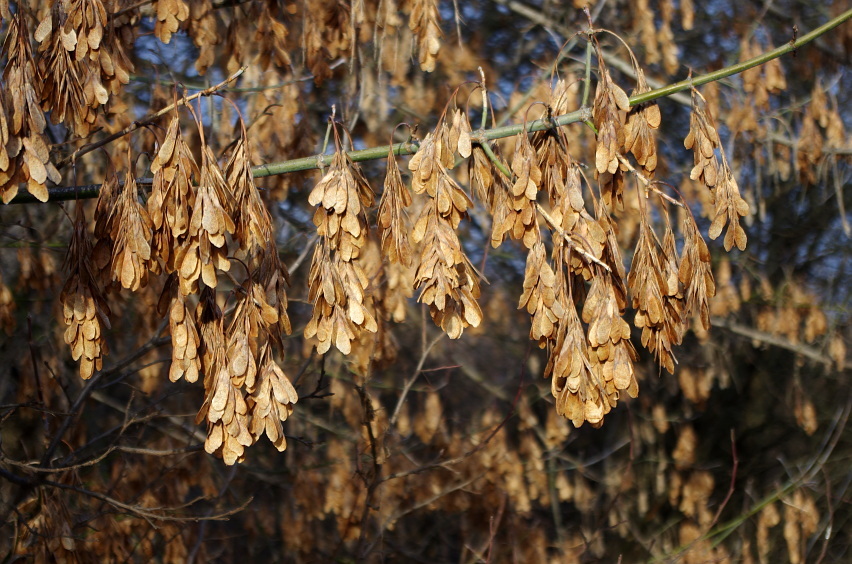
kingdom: Plantae
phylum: Tracheophyta
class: Magnoliopsida
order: Sapindales
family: Sapindaceae
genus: Acer
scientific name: Acer negundo
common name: Ashleaf maple
